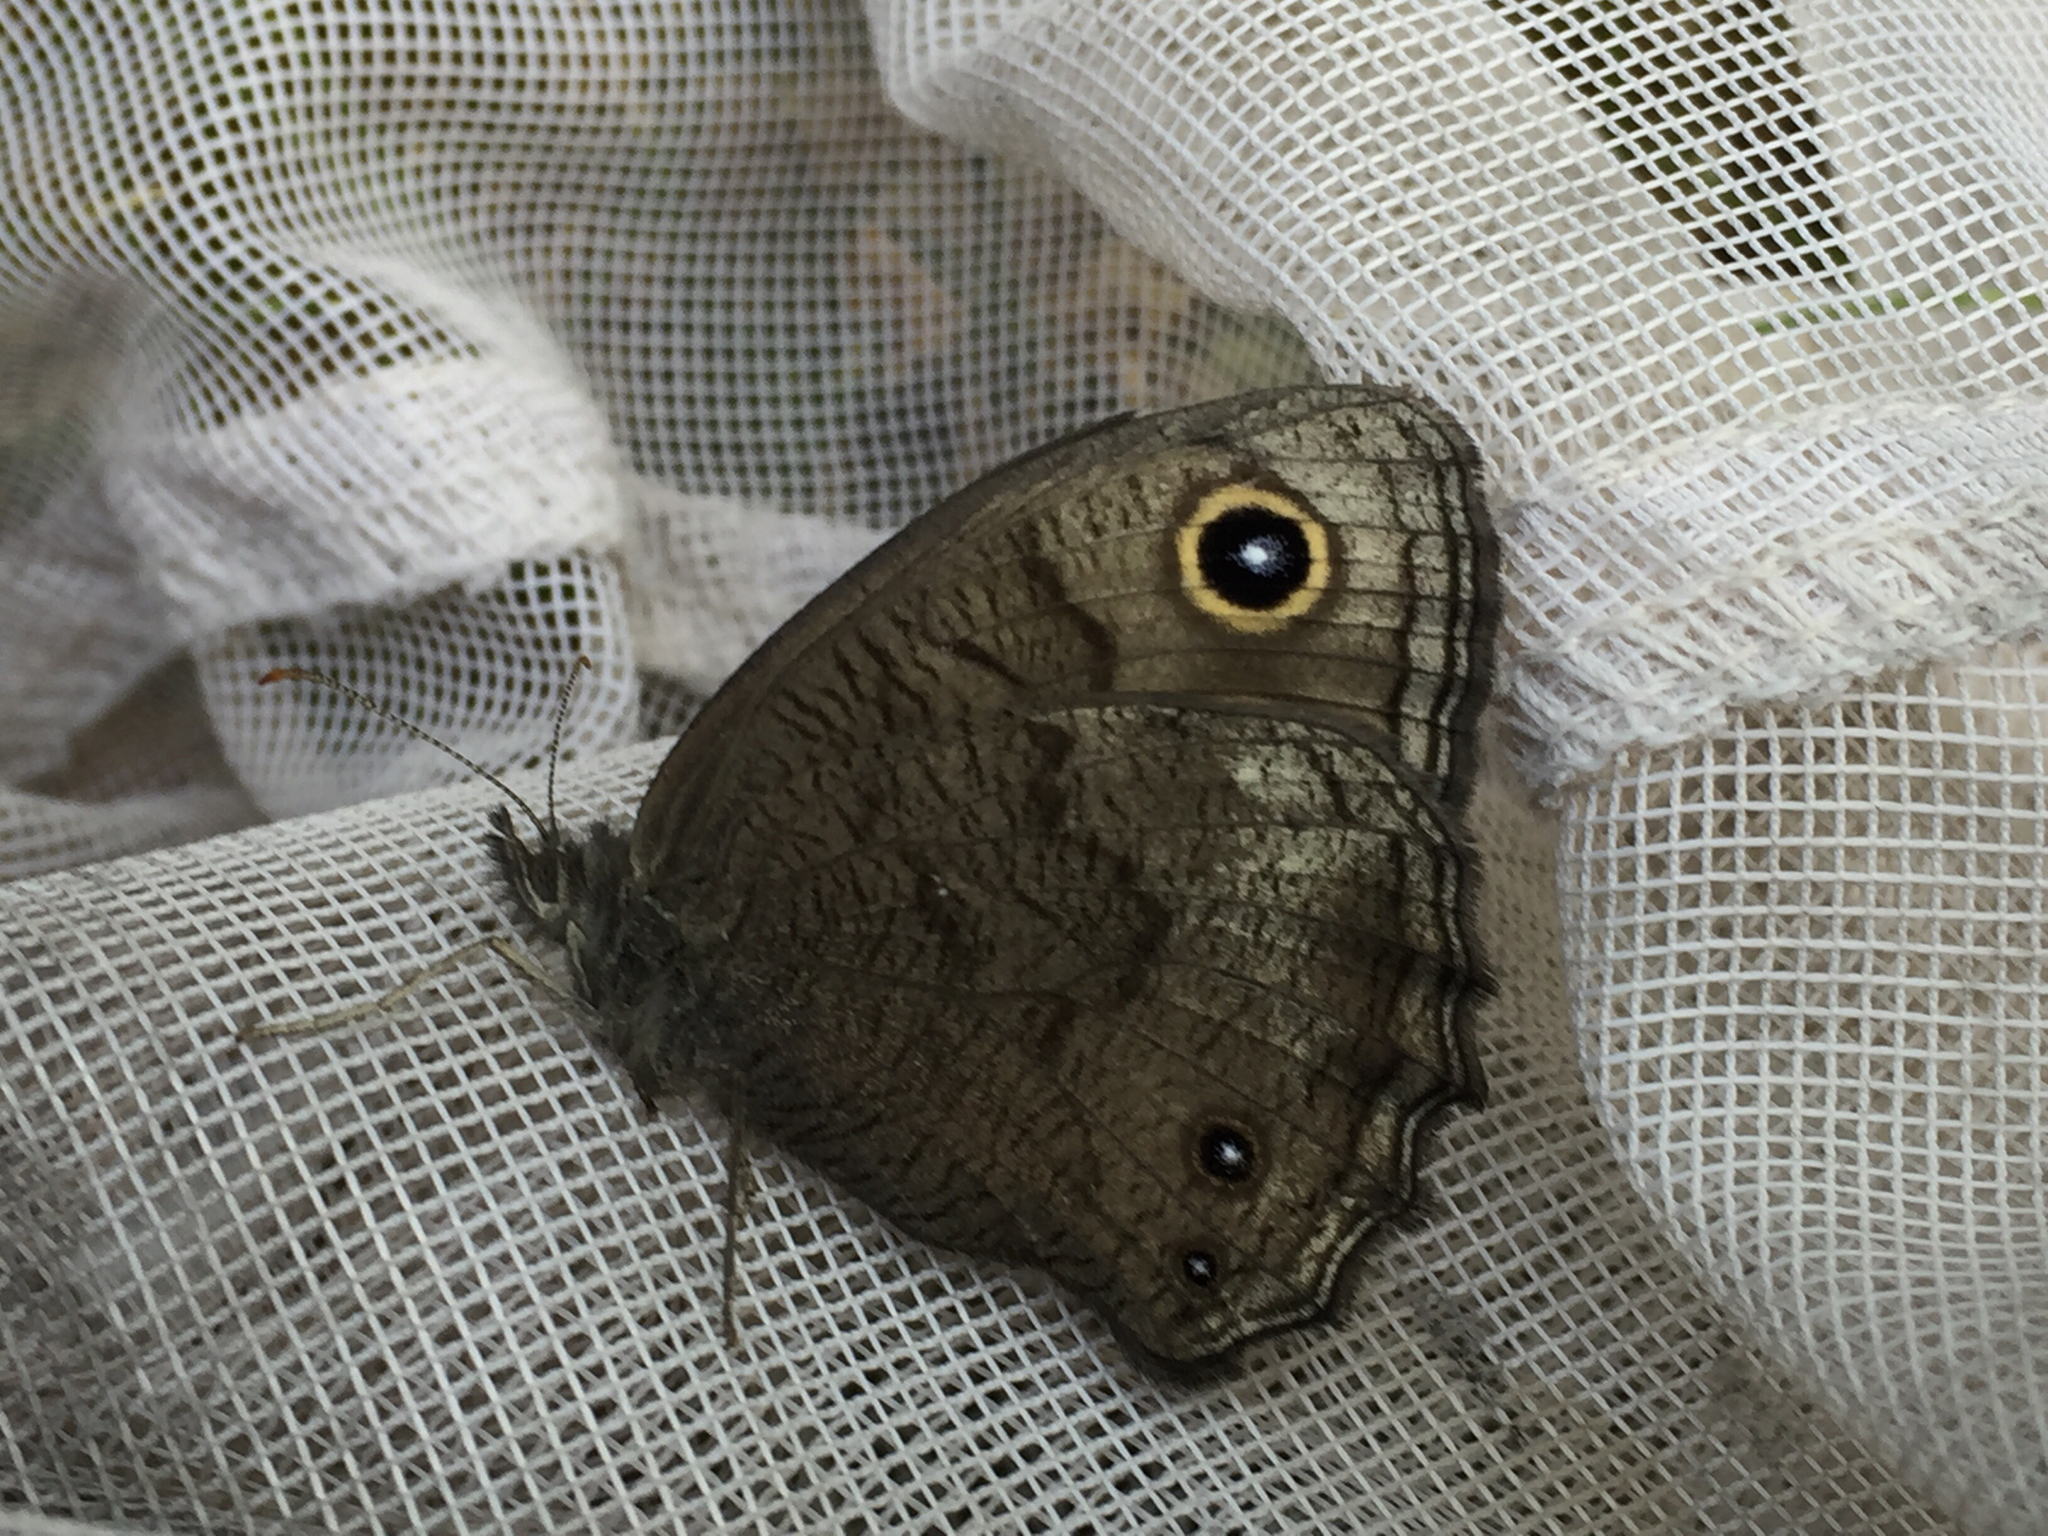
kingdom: Animalia
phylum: Arthropoda
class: Insecta
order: Lepidoptera
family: Nymphalidae
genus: Cercyonis
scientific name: Cercyonis pegala
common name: Common wood-nymph
